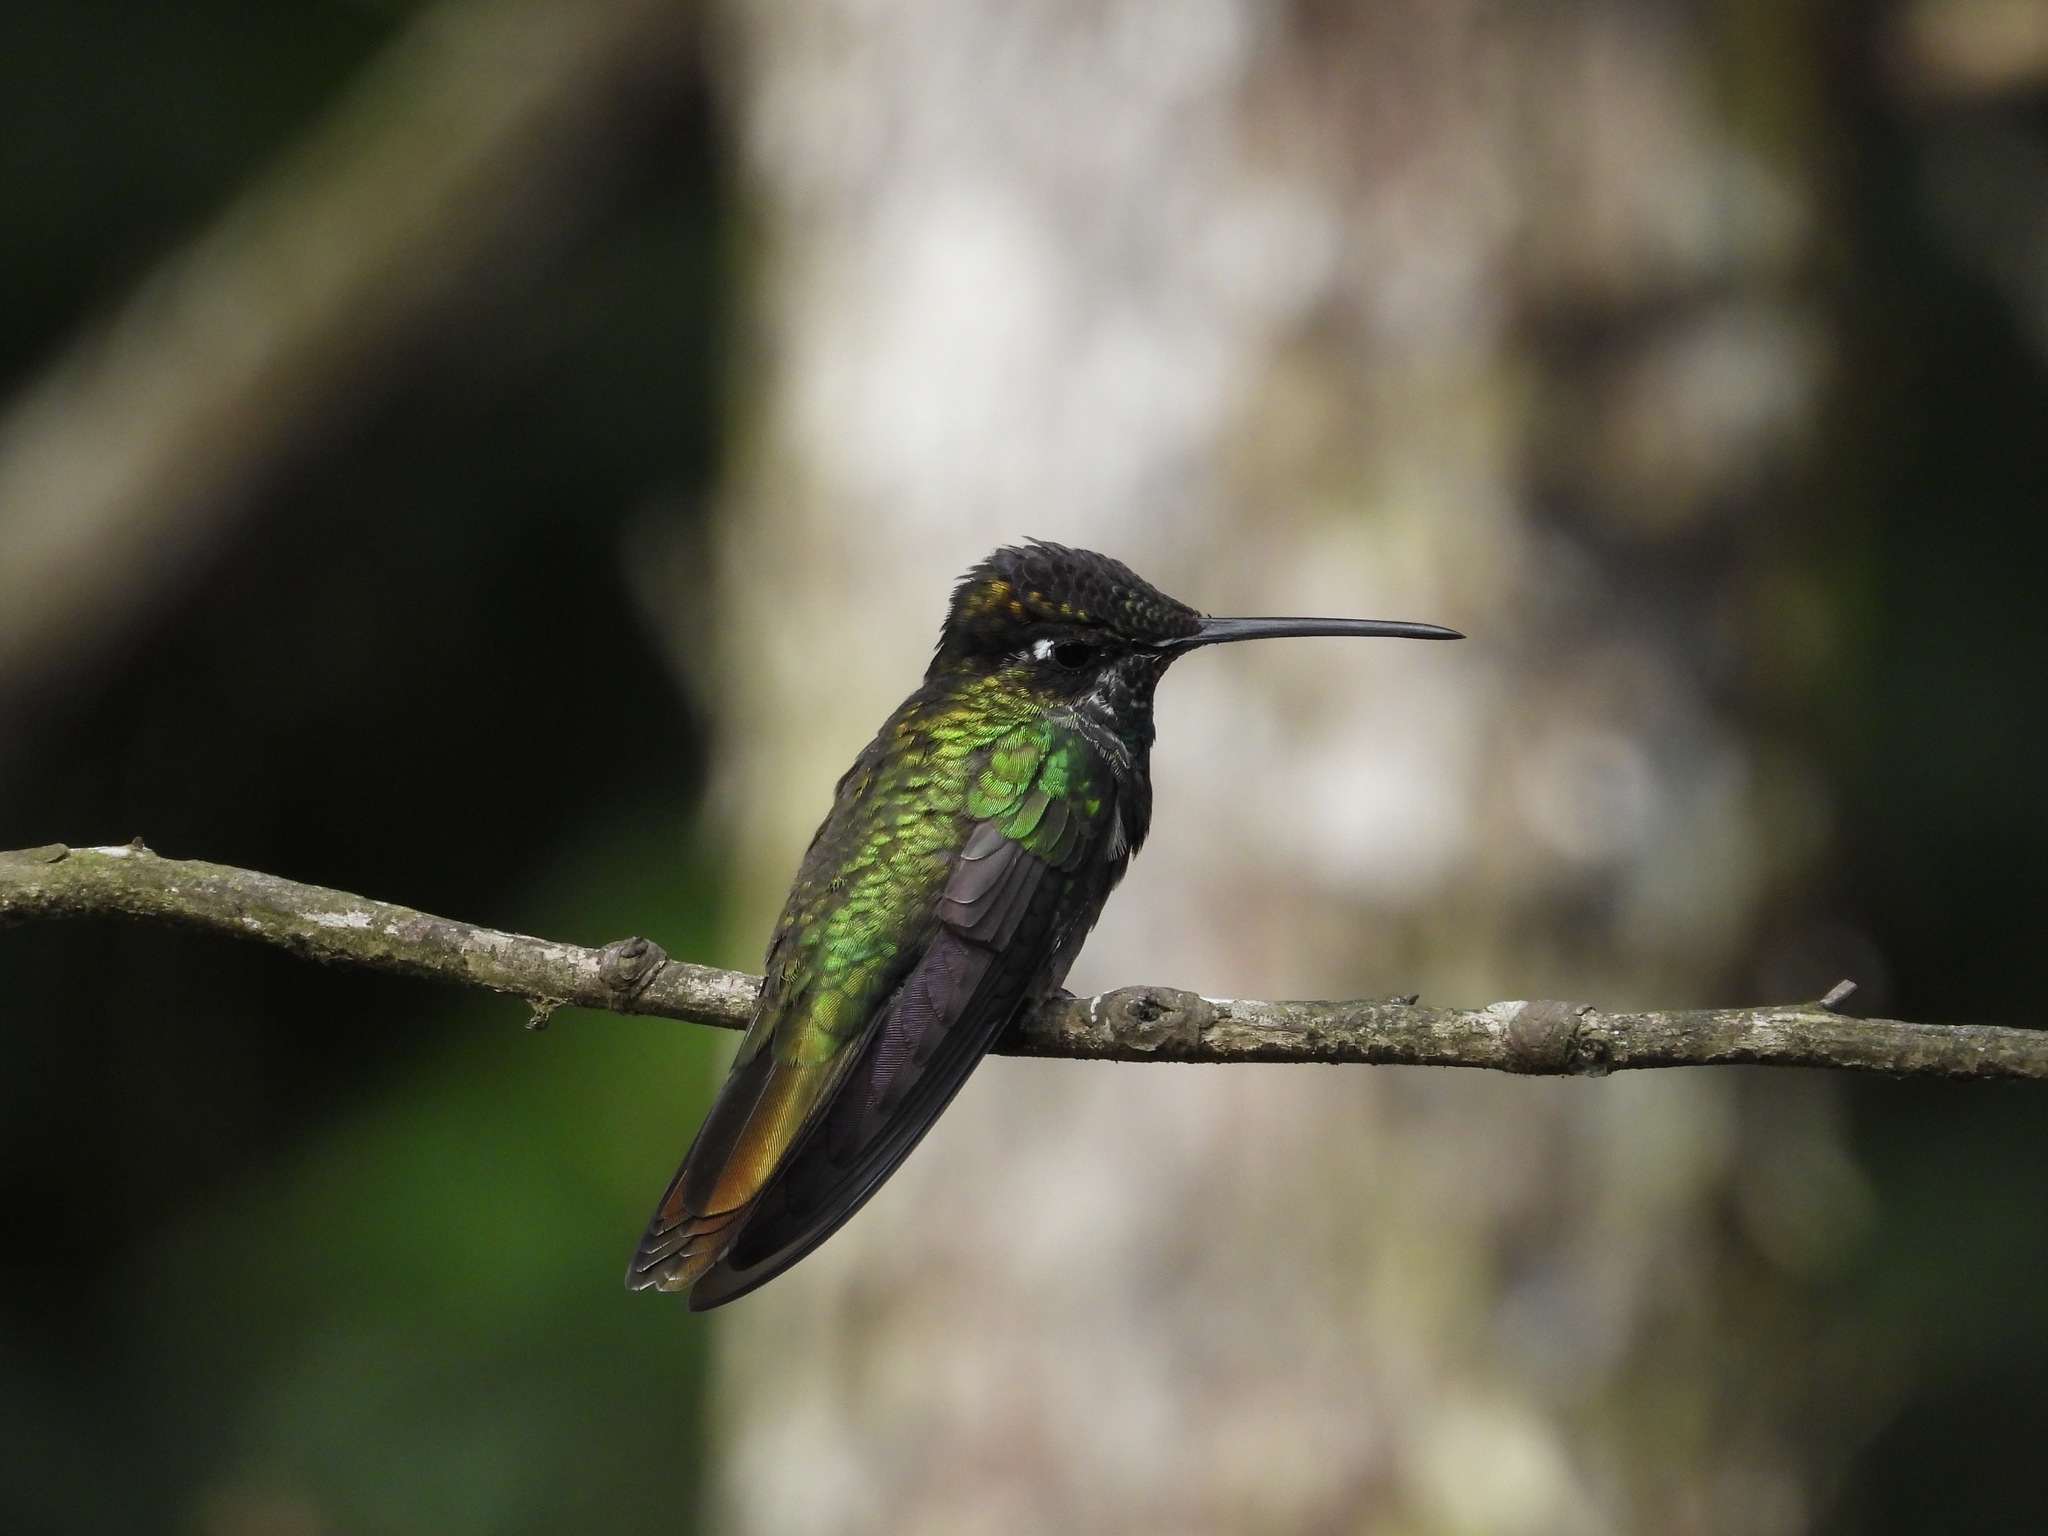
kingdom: Animalia
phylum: Chordata
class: Aves
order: Apodiformes
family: Trochilidae
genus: Eugenes
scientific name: Eugenes fulgens
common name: Magnificent hummingbird
